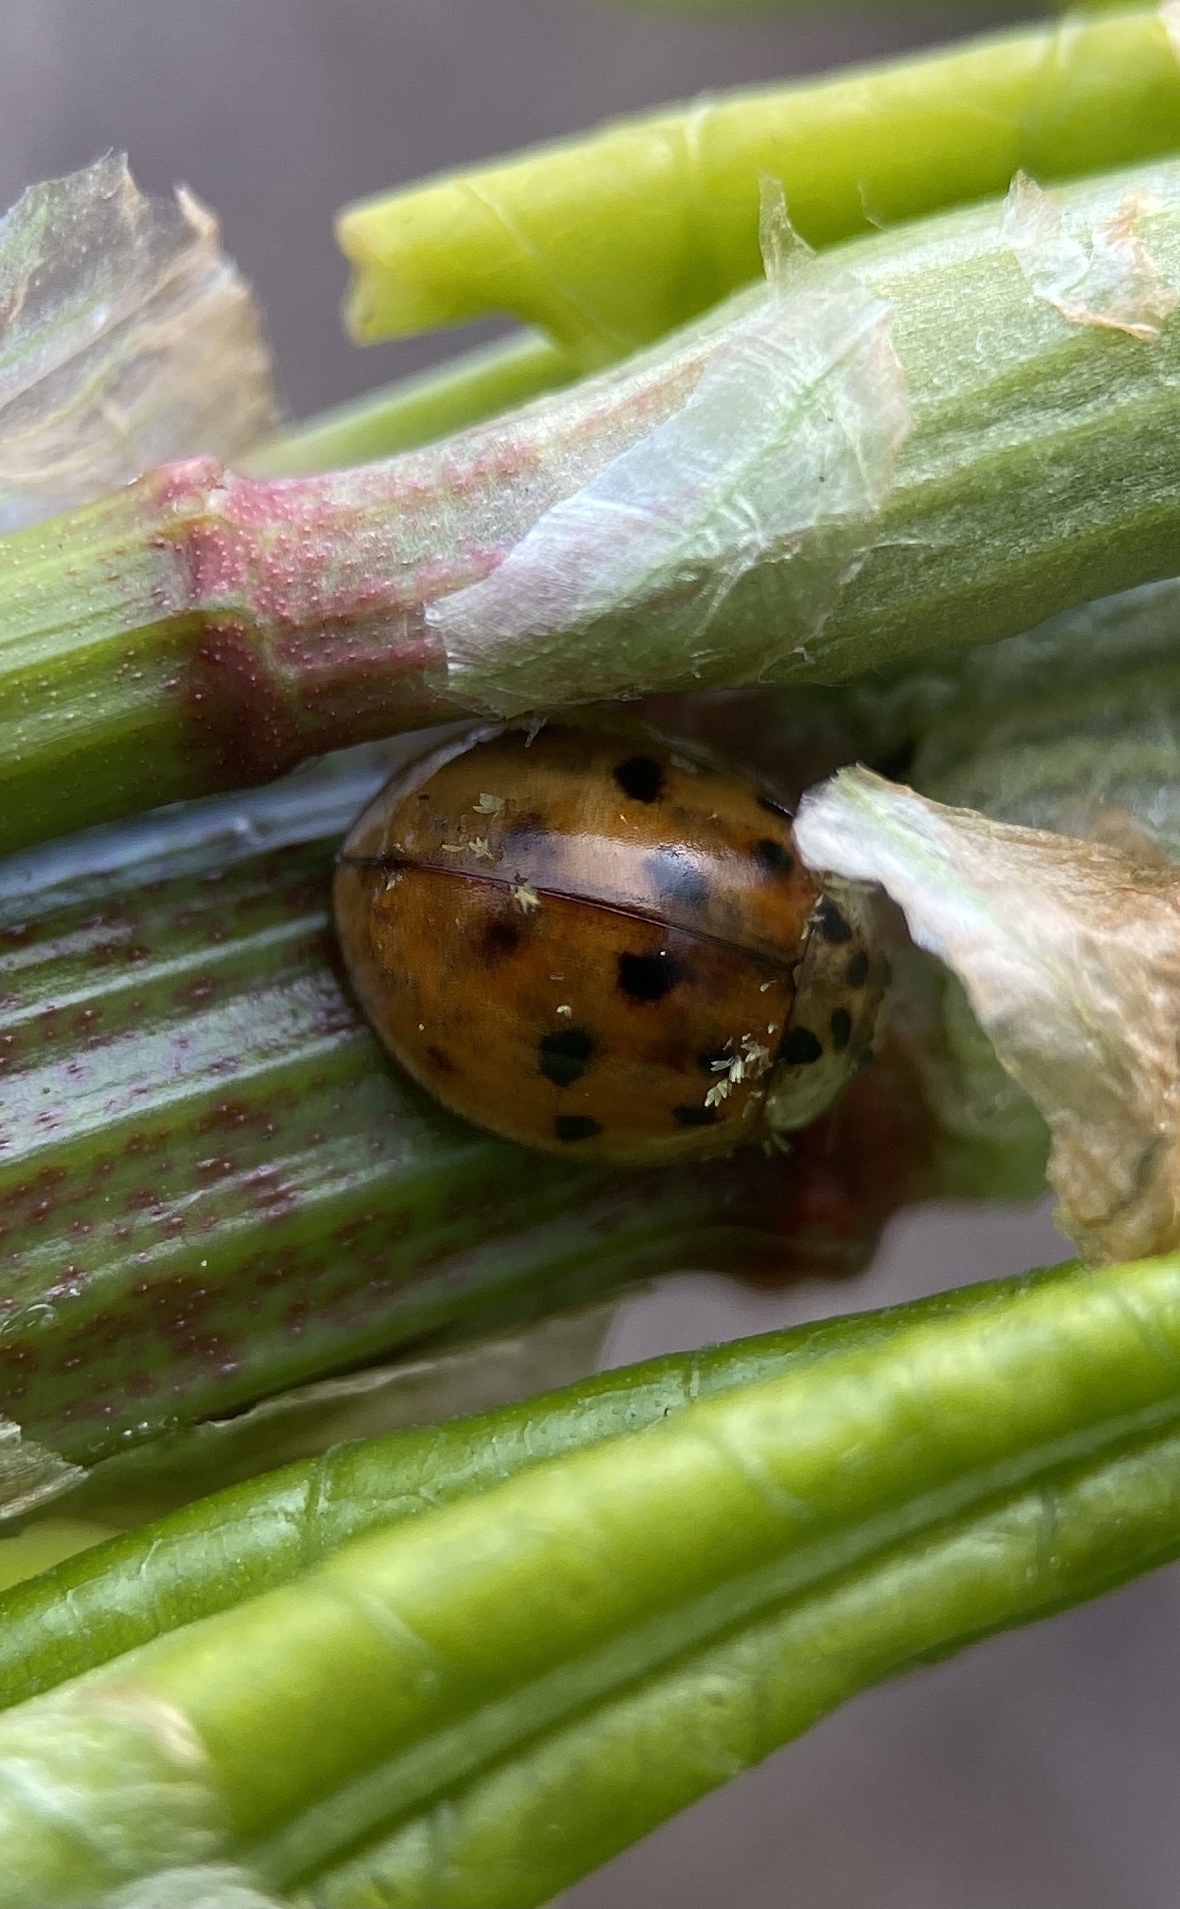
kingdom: Fungi
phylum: Ascomycota
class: Laboulbeniomycetes
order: Laboulbeniales
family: Laboulbeniaceae
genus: Hesperomyces
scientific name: Hesperomyces harmoniae
